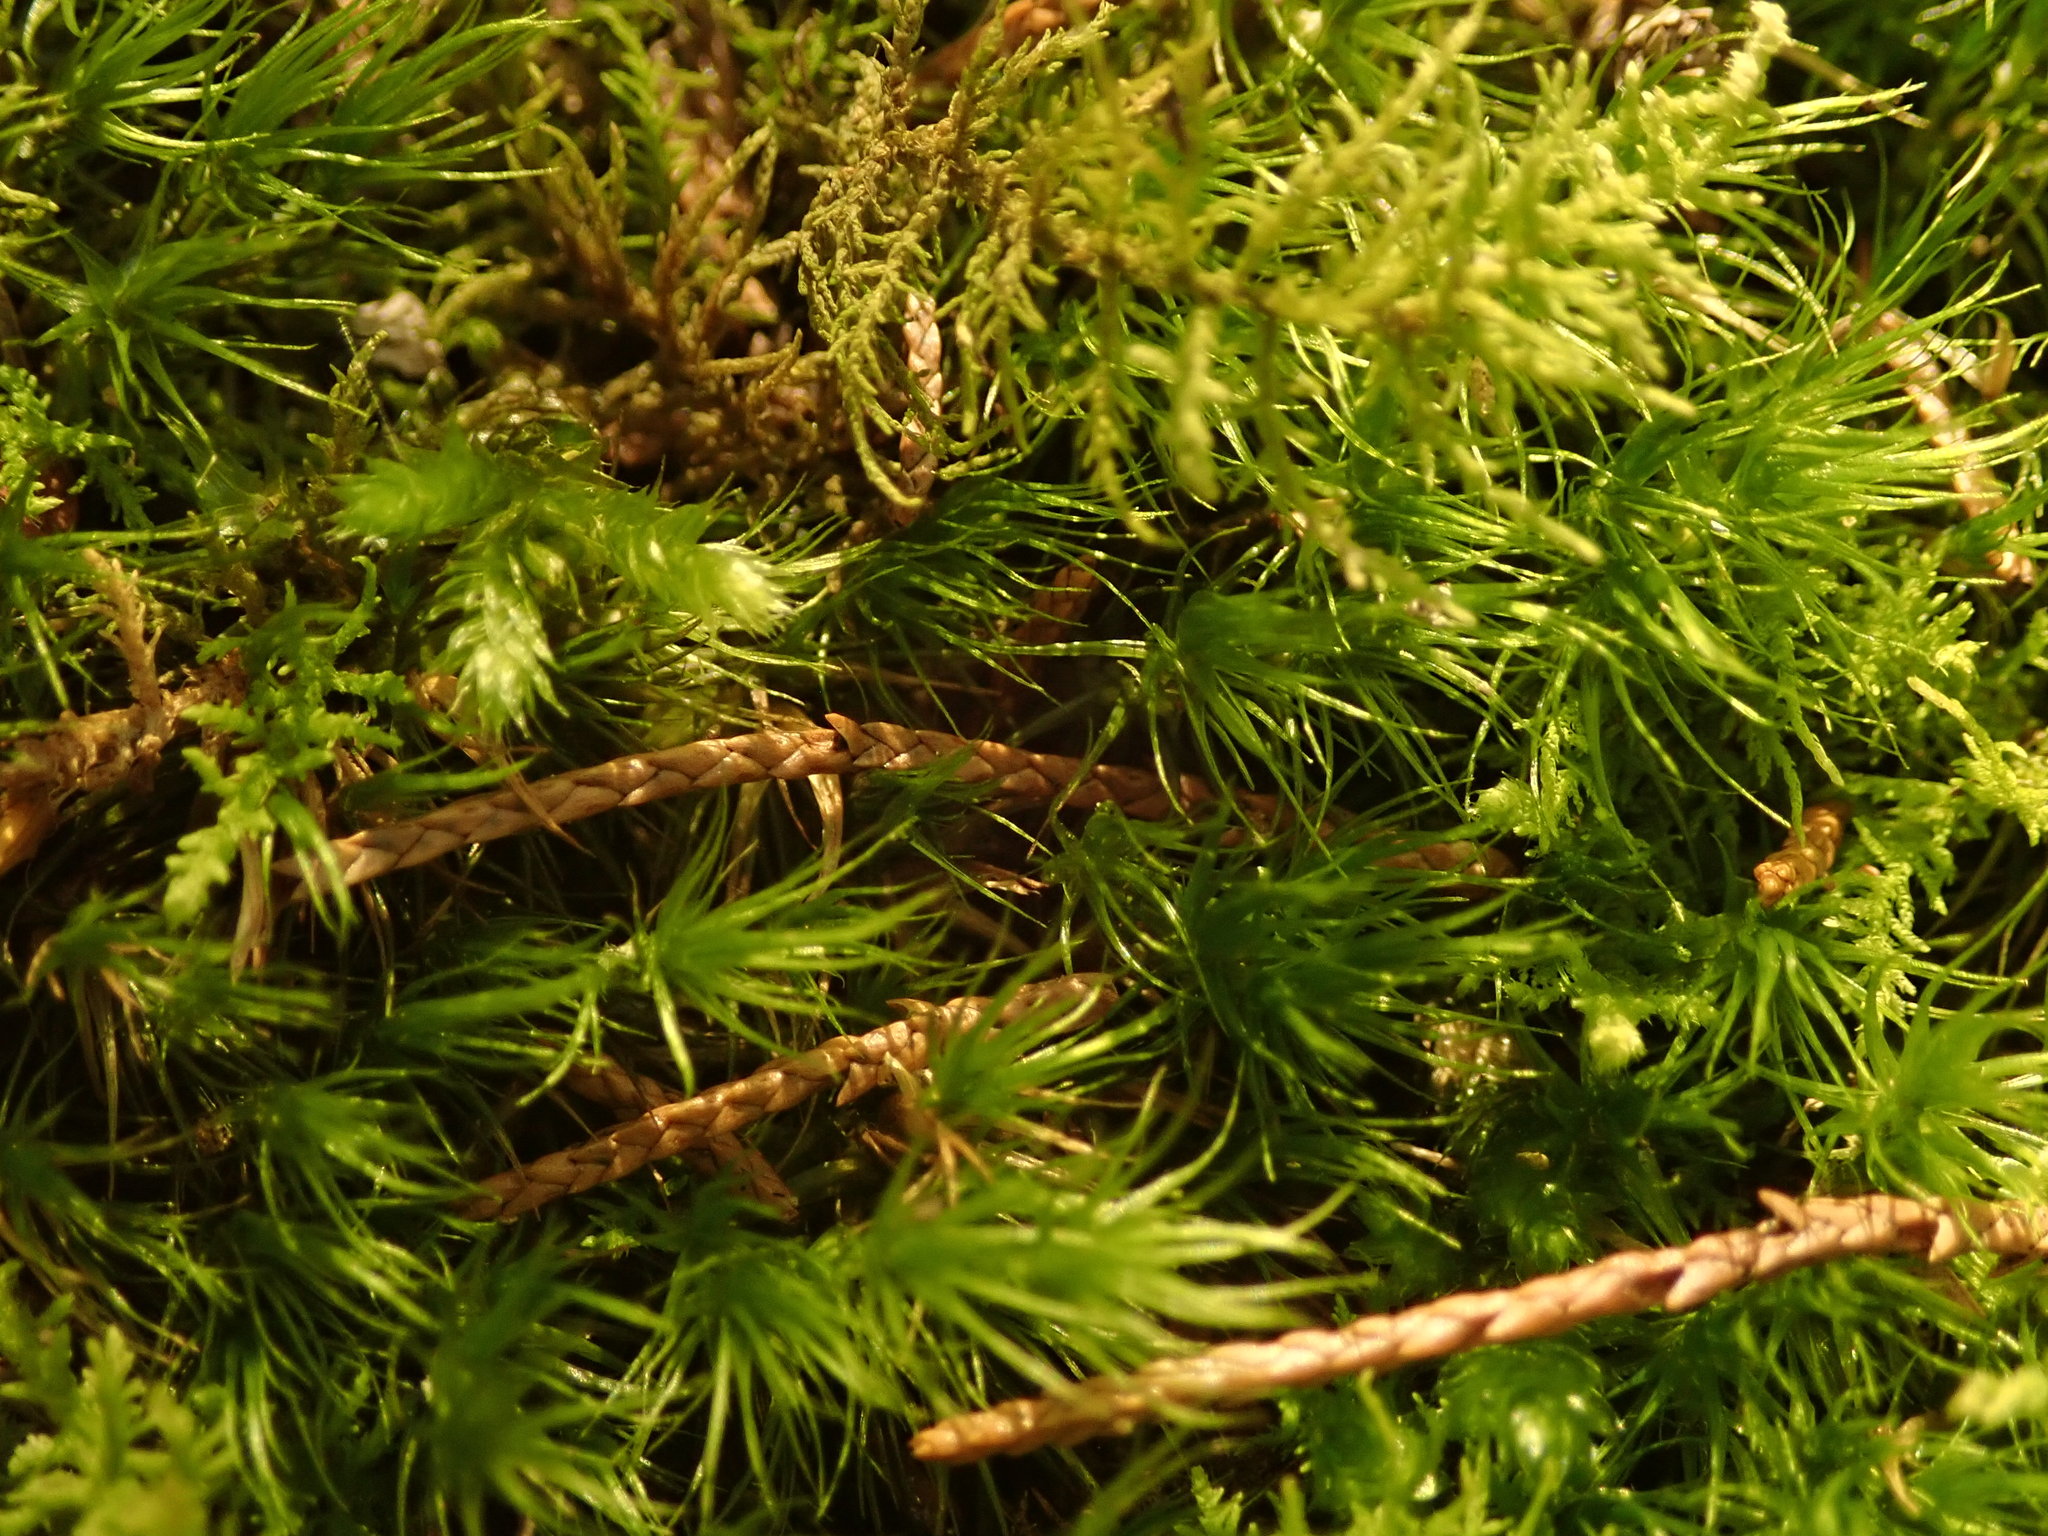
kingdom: Plantae
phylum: Bryophyta
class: Bryopsida
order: Dicranales
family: Dicranaceae
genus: Dicranum
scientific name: Dicranum scoparium
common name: Broom fork-moss
